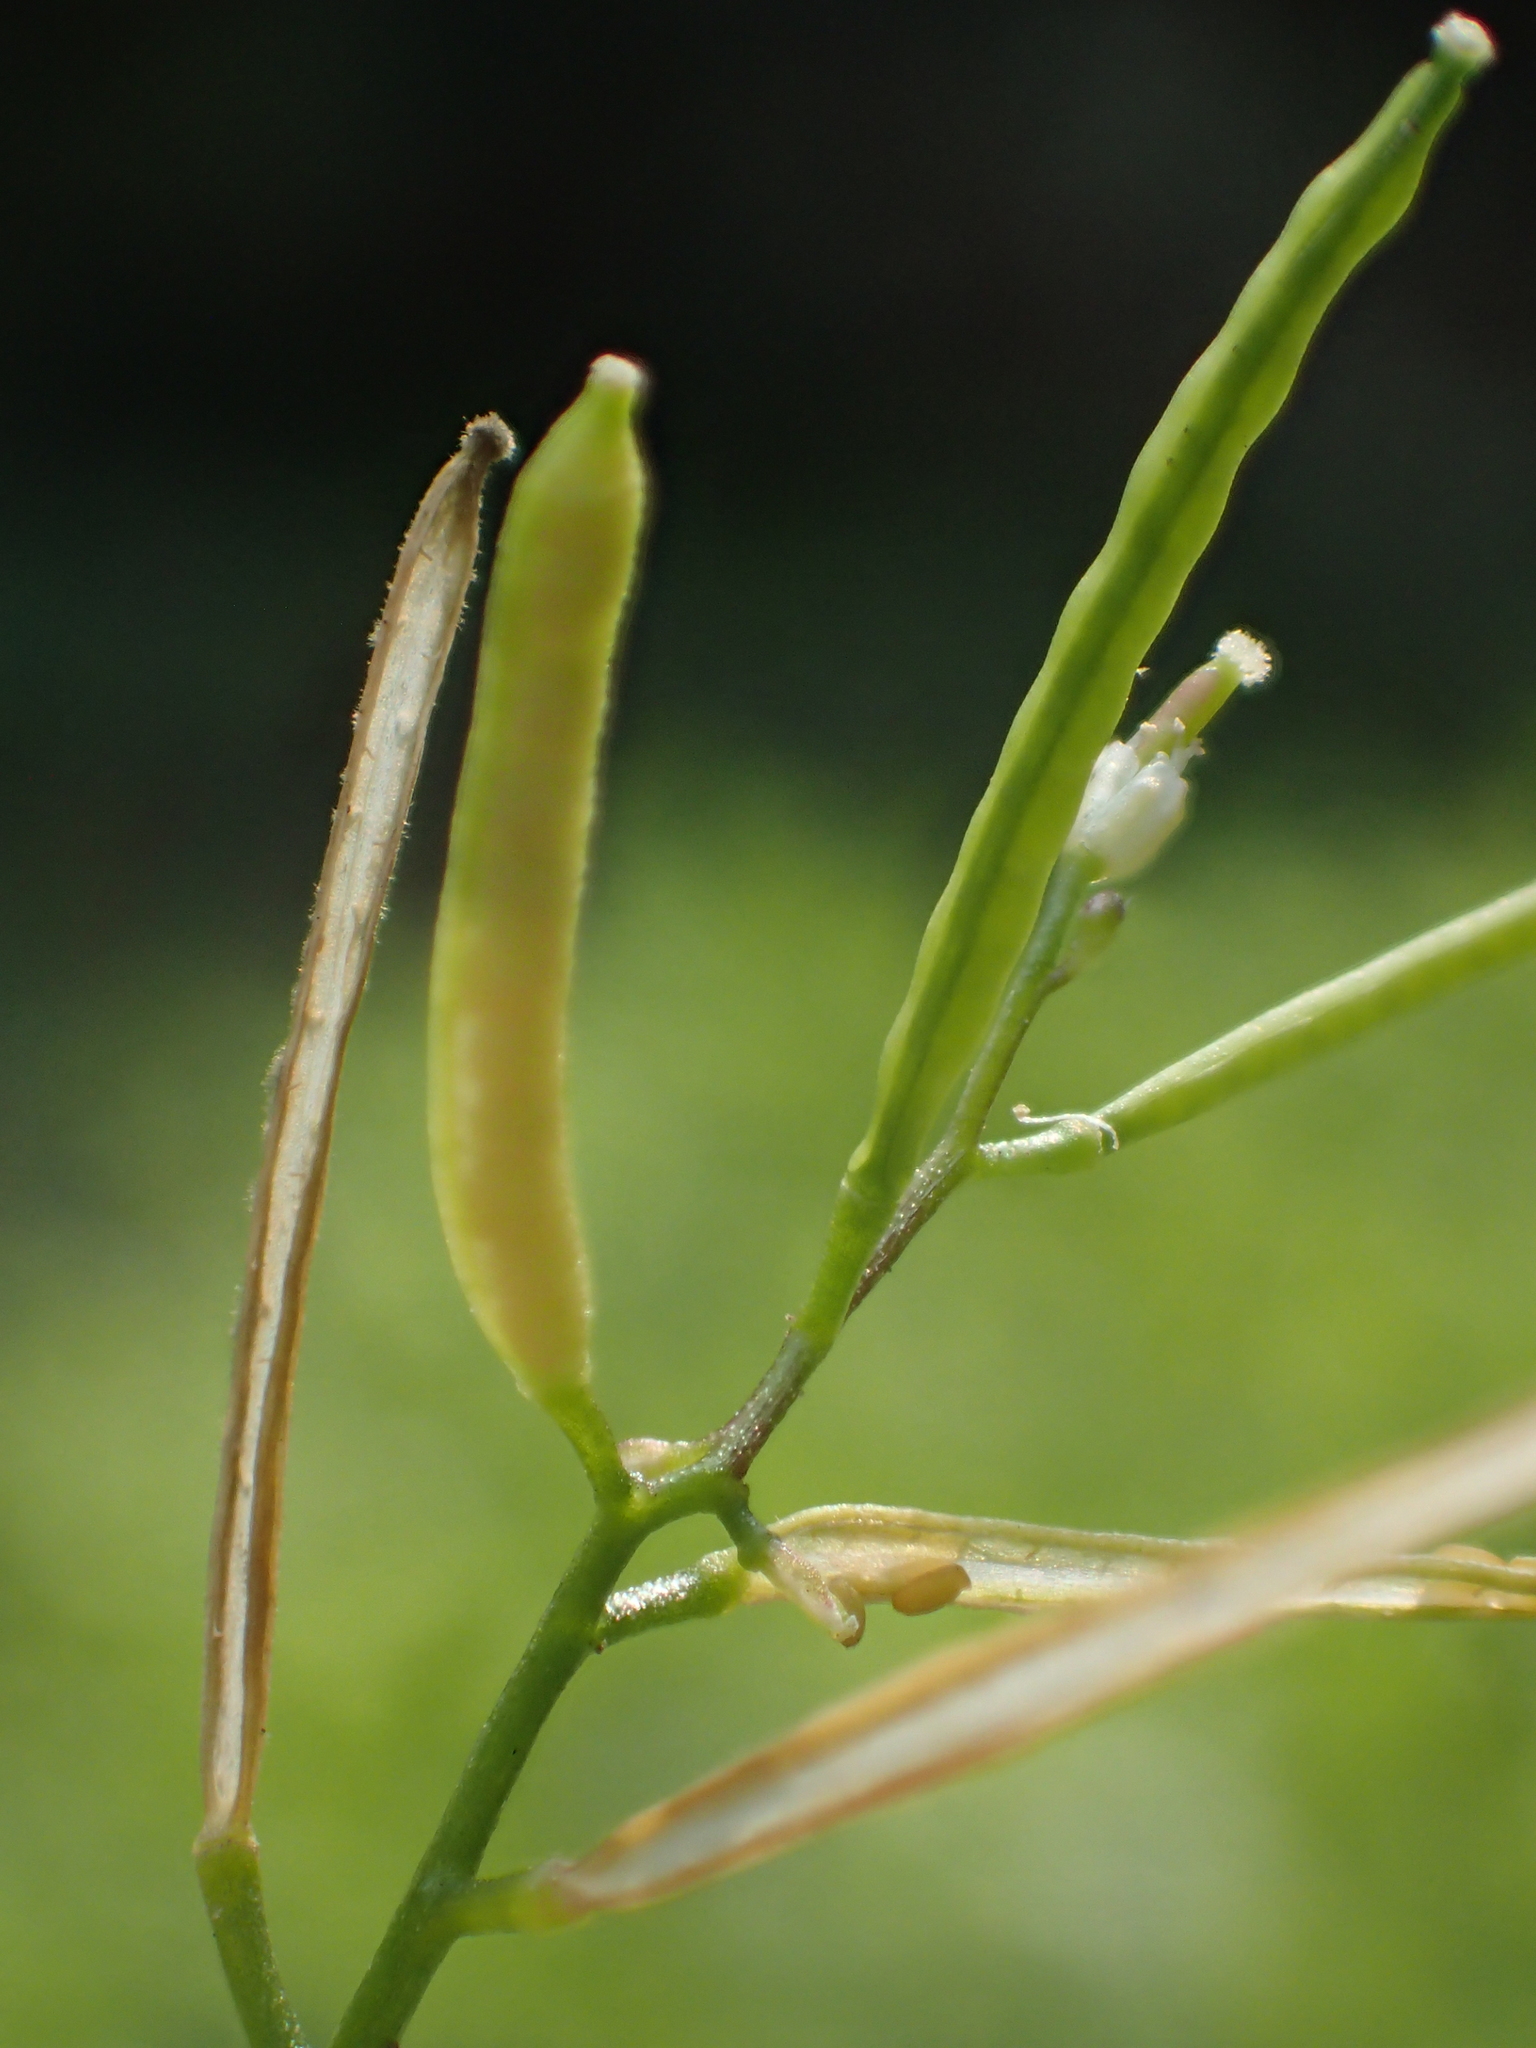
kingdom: Plantae
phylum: Tracheophyta
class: Magnoliopsida
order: Brassicales
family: Brassicaceae
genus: Cardamine
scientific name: Cardamine flexuosa
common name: Woodland bittercress
